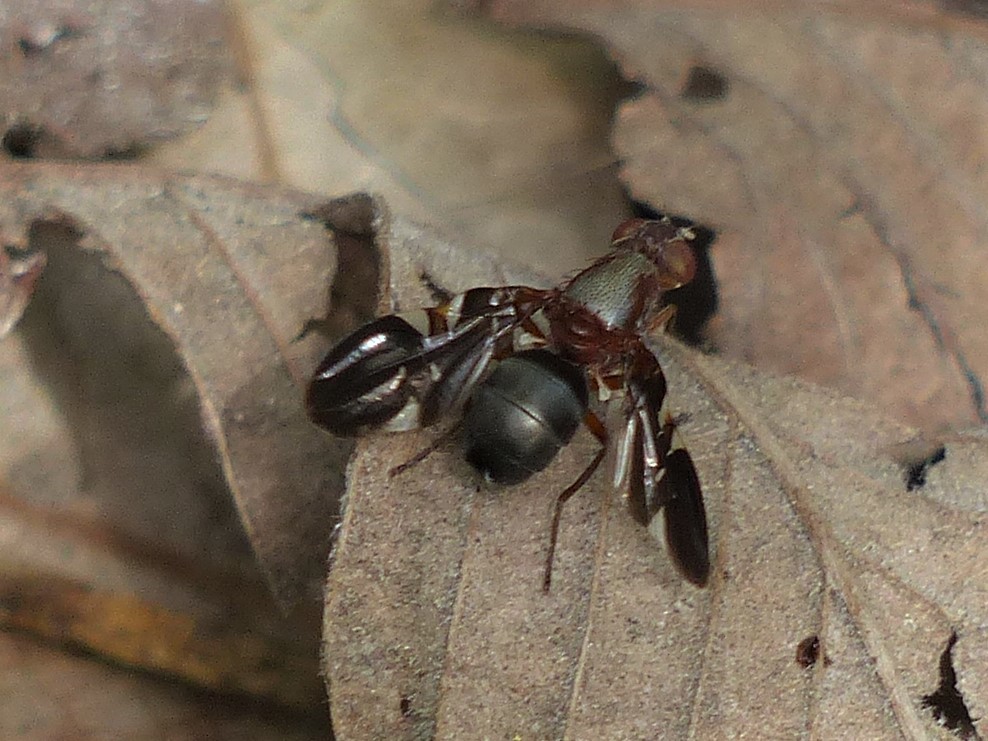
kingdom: Animalia
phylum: Arthropoda
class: Insecta
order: Diptera
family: Ulidiidae
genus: Delphinia
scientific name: Delphinia picta
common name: Common picture-winged fly
